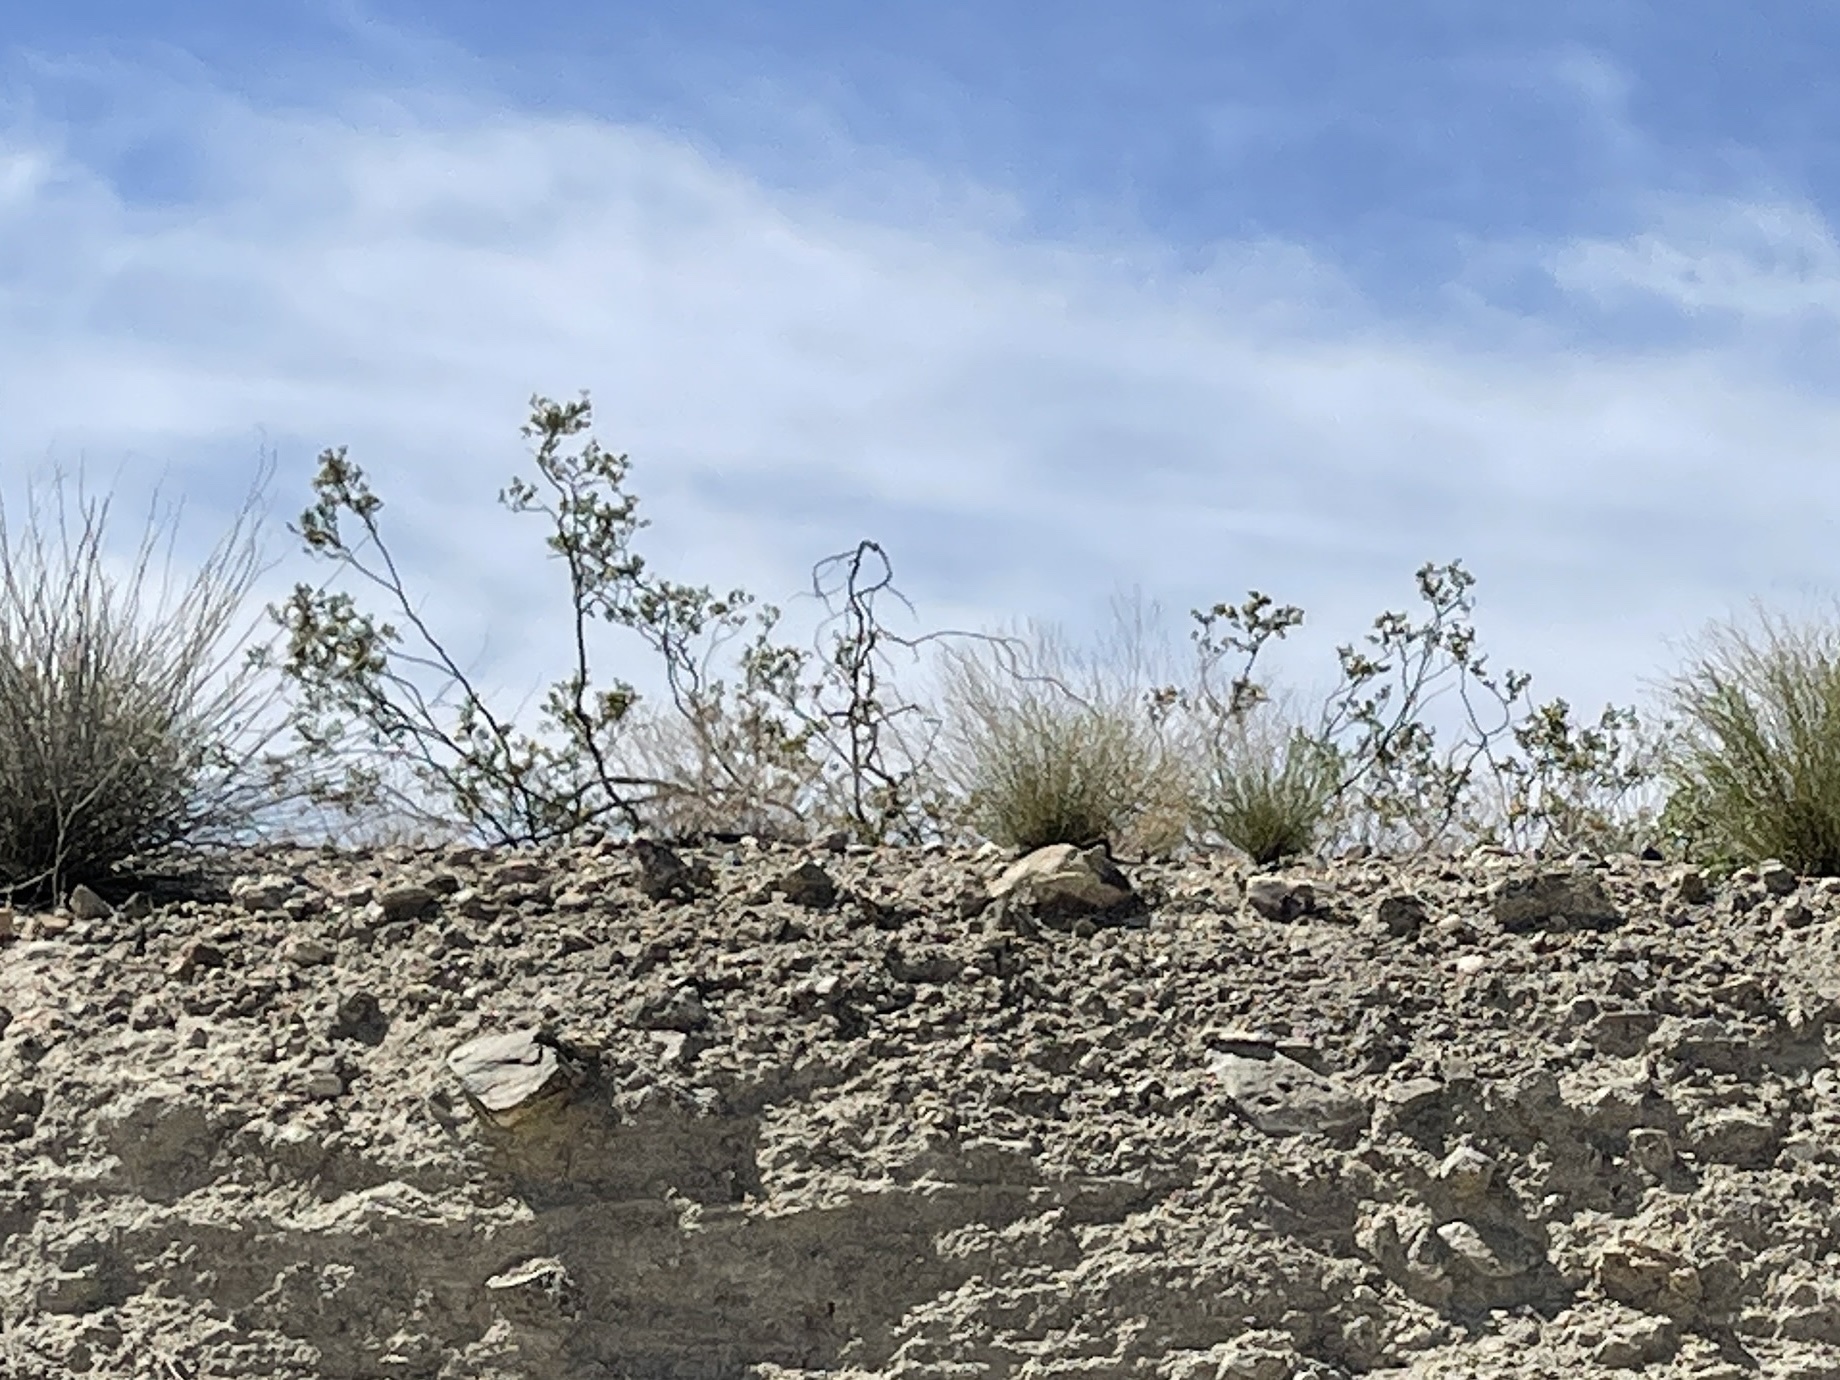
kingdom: Plantae
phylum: Tracheophyta
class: Magnoliopsida
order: Zygophyllales
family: Zygophyllaceae
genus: Larrea
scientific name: Larrea tridentata
